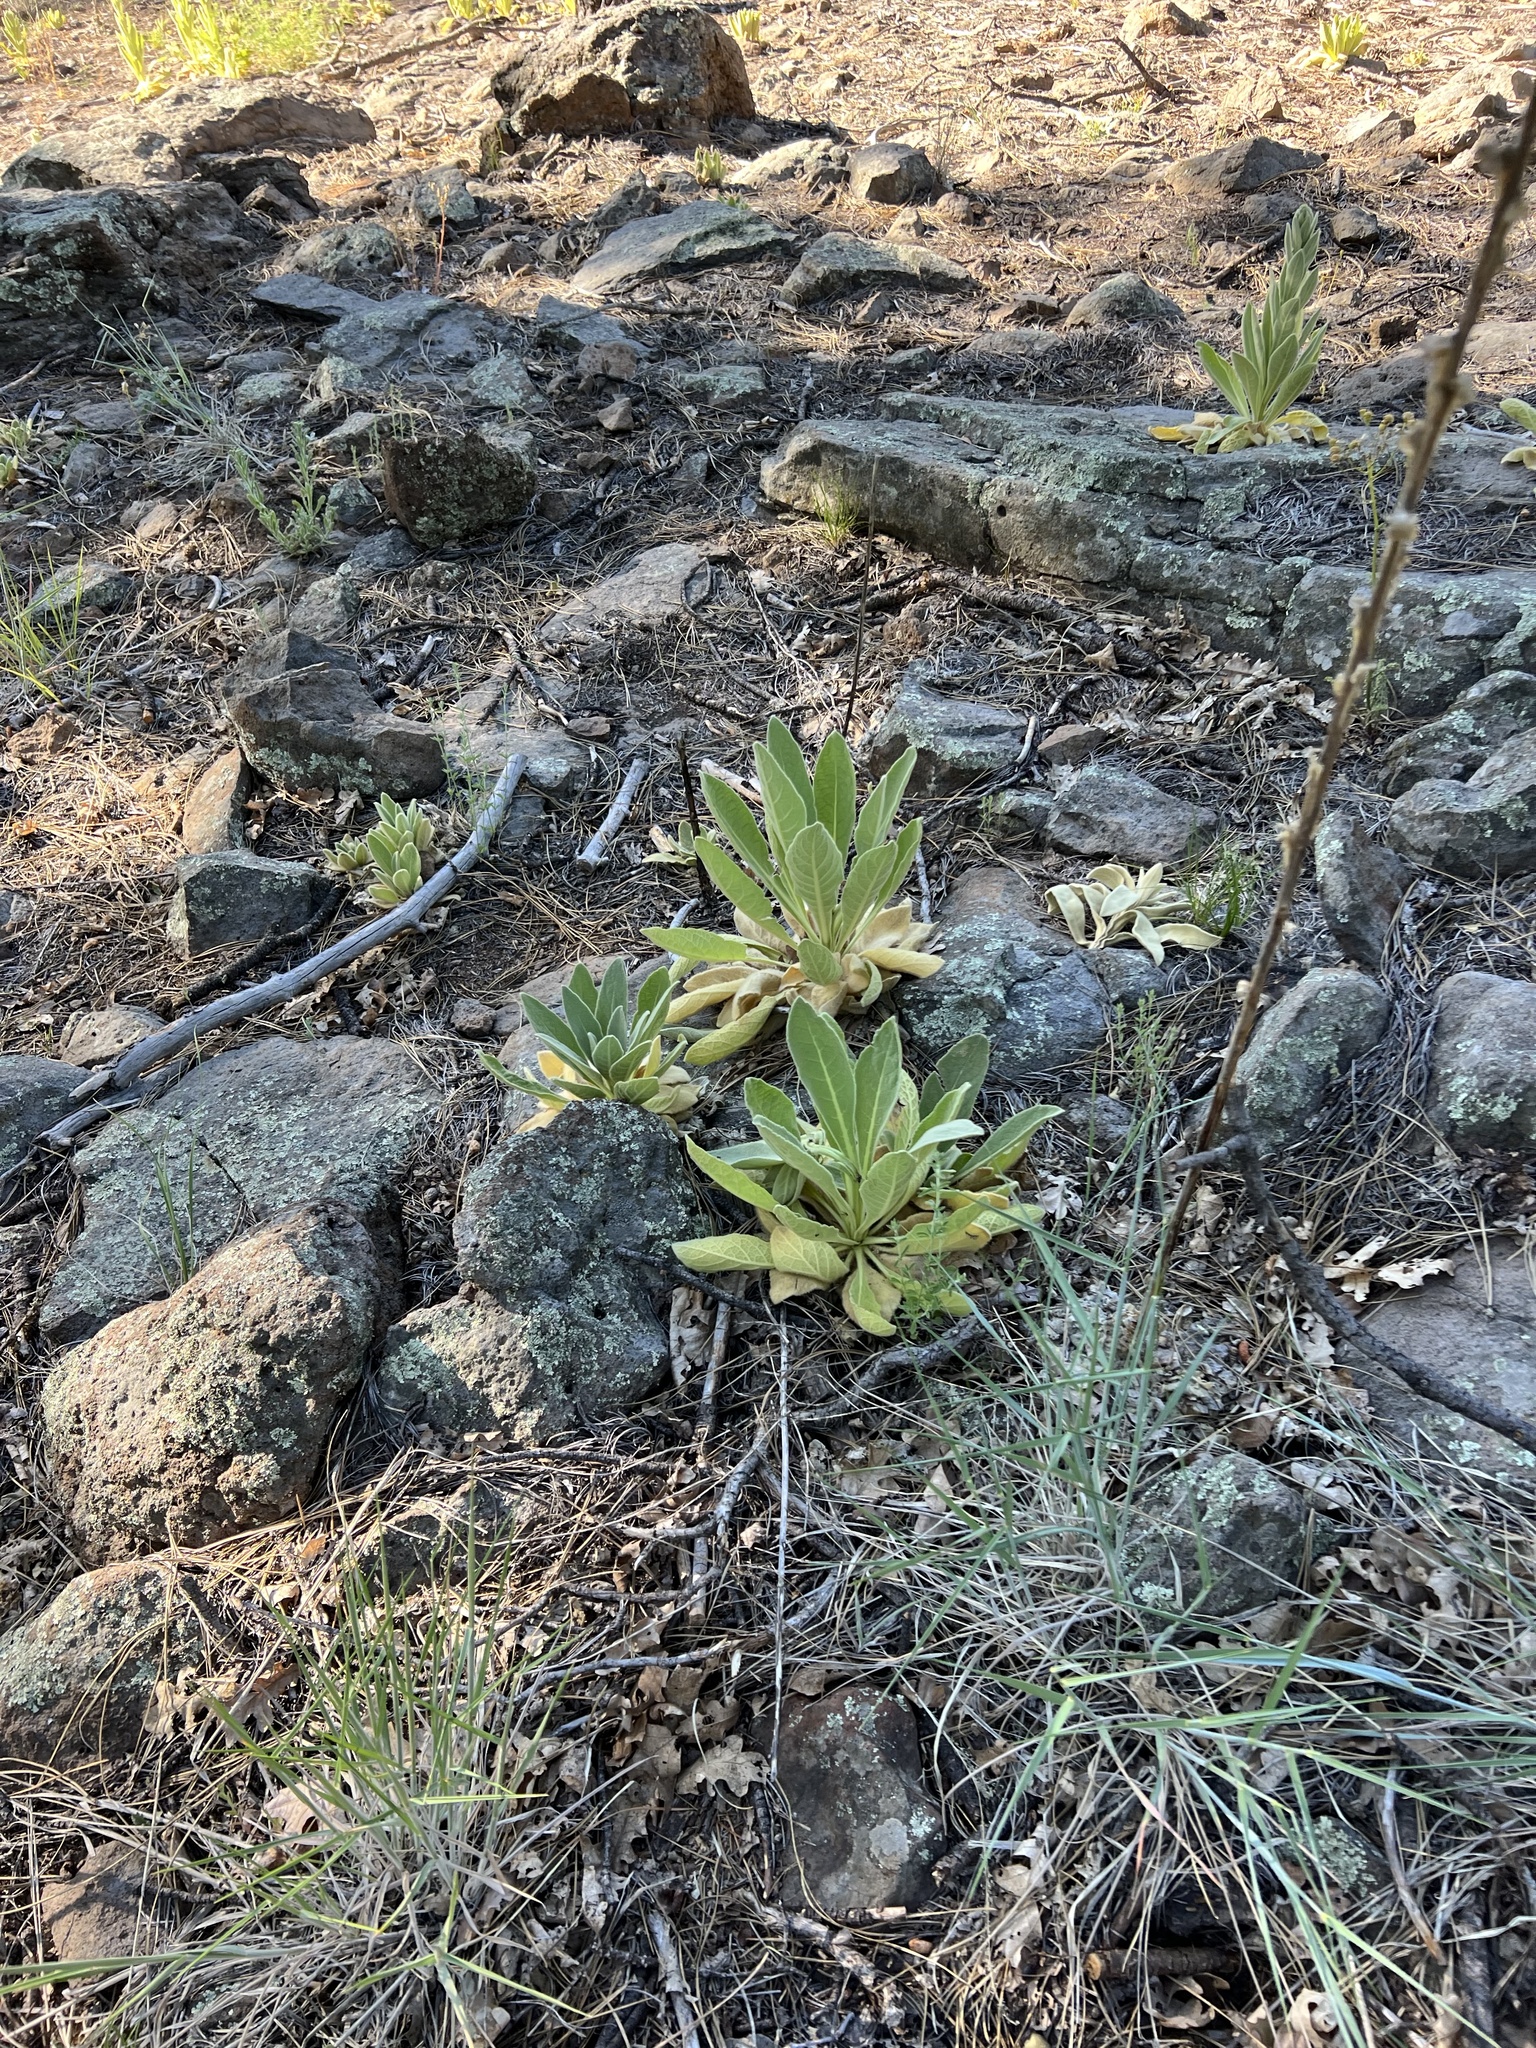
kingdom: Plantae
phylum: Tracheophyta
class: Magnoliopsida
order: Lamiales
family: Scrophulariaceae
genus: Verbascum
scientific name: Verbascum thapsus
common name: Common mullein
